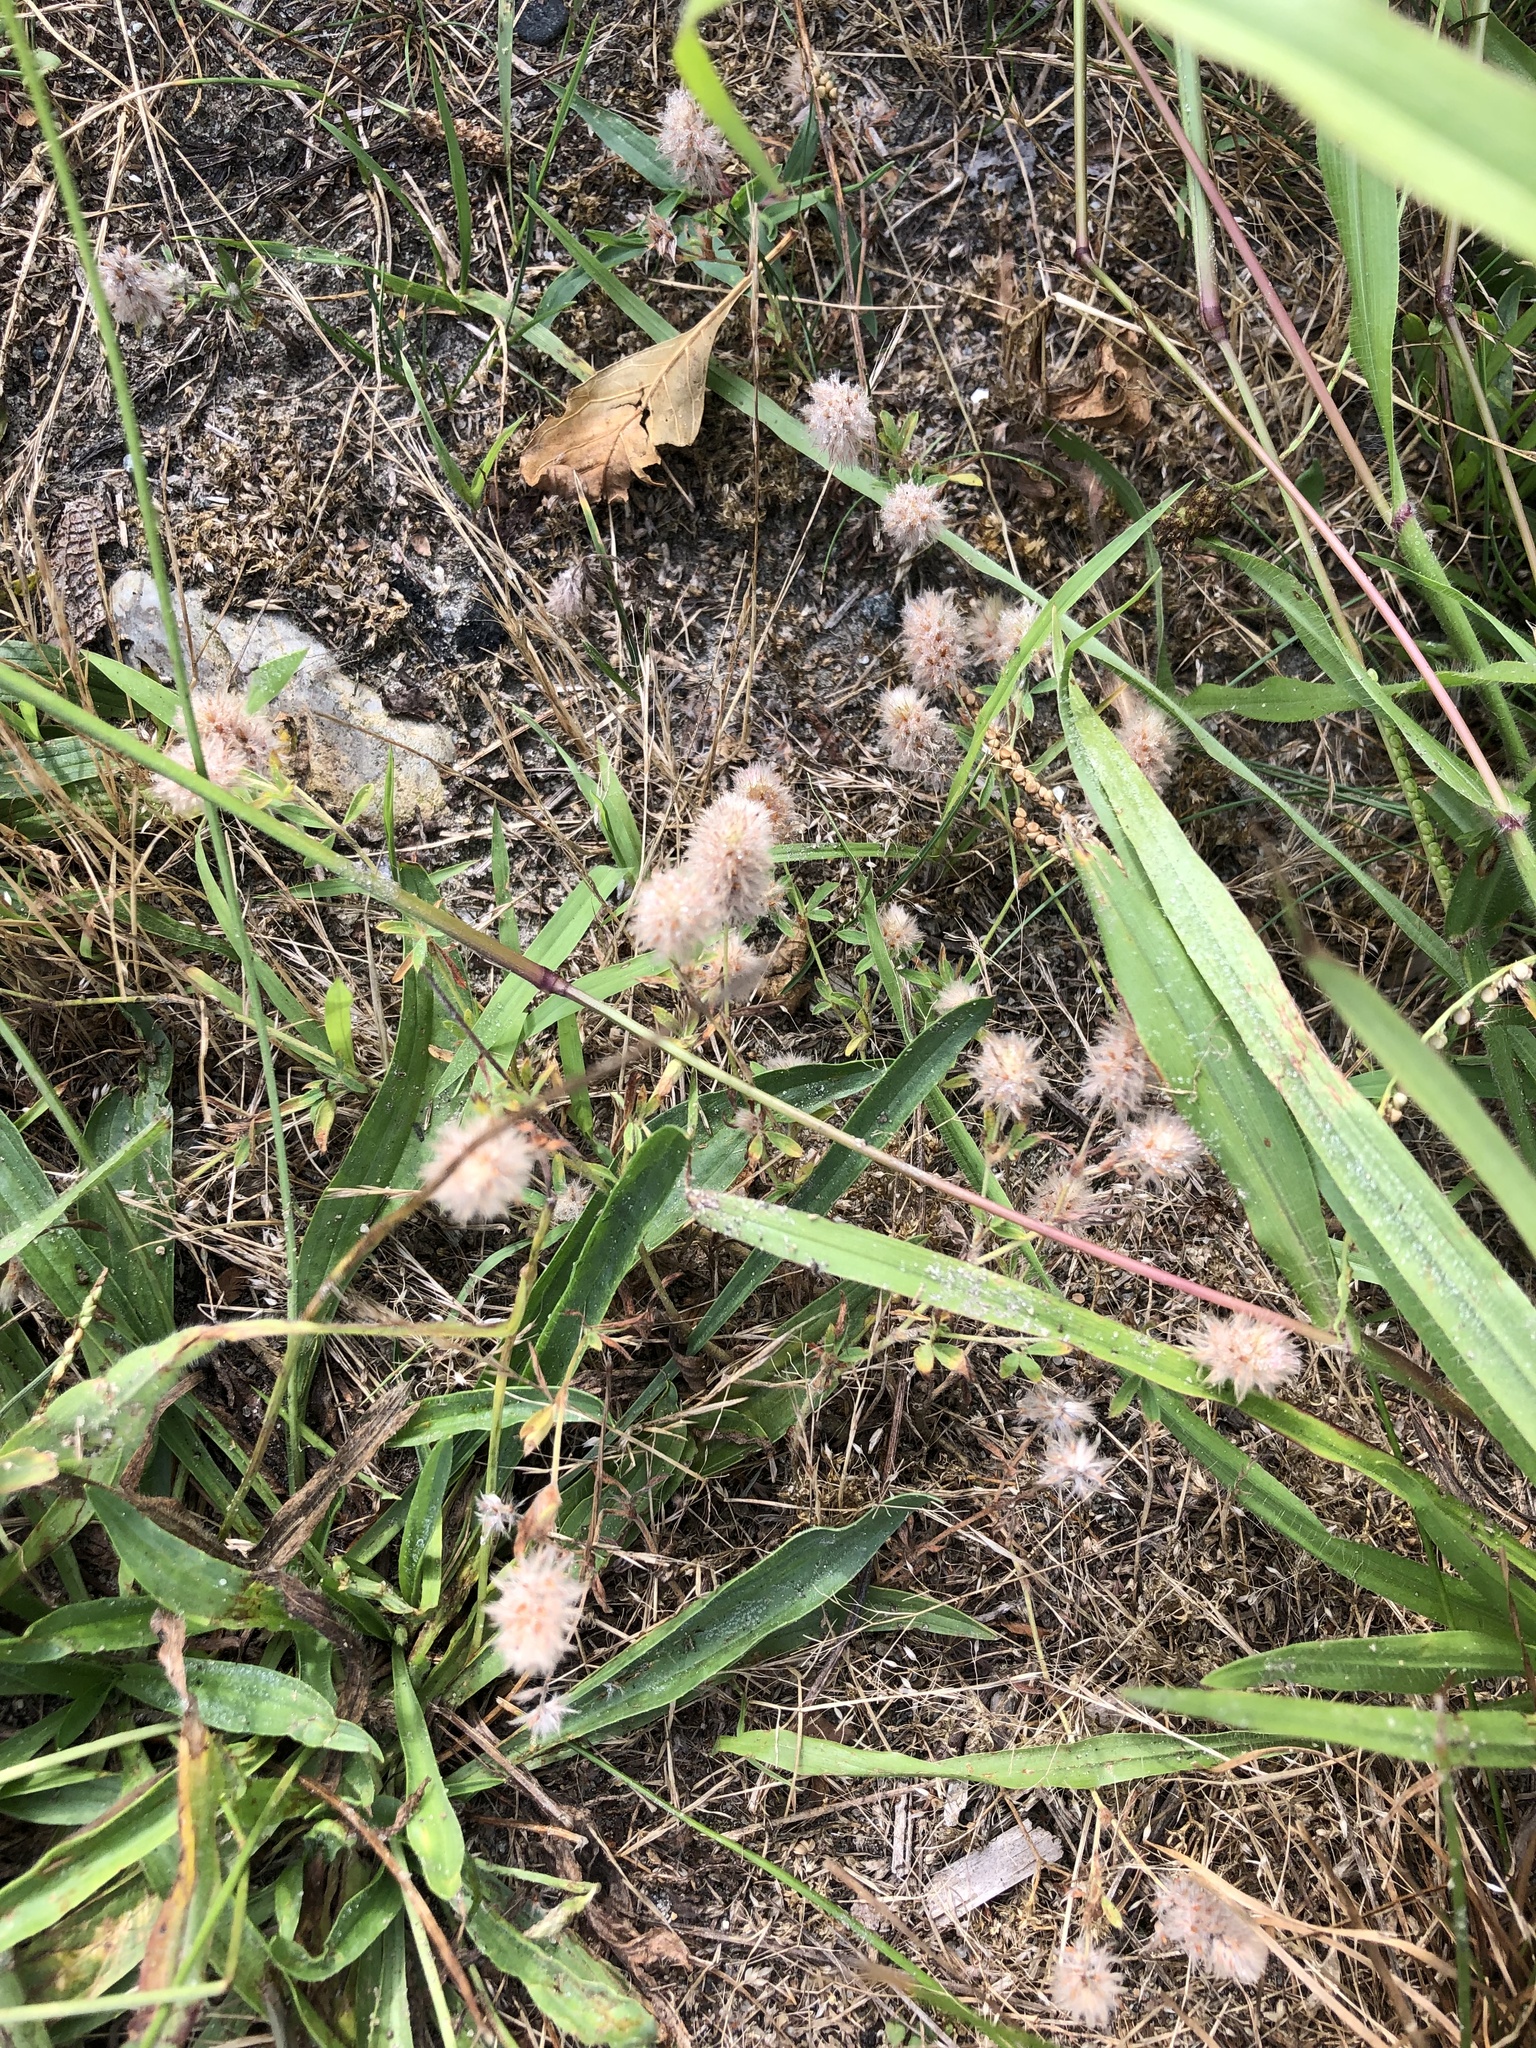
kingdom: Plantae
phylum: Tracheophyta
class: Magnoliopsida
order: Fabales
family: Fabaceae
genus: Trifolium
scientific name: Trifolium arvense
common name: Hare's-foot clover
